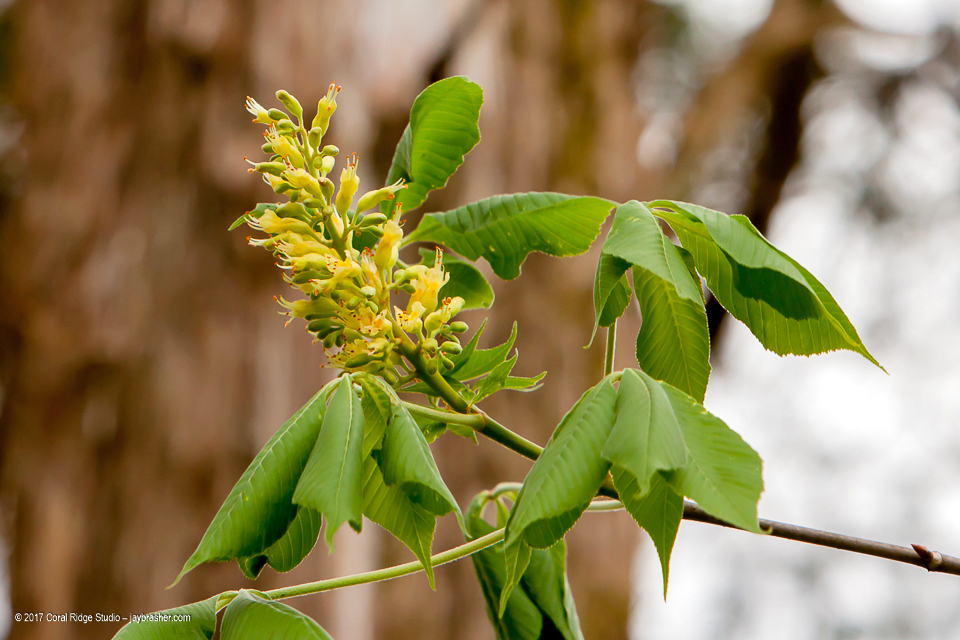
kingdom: Plantae
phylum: Tracheophyta
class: Magnoliopsida
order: Sapindales
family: Sapindaceae
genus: Aesculus
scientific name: Aesculus glabra
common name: Ohio buckeye
